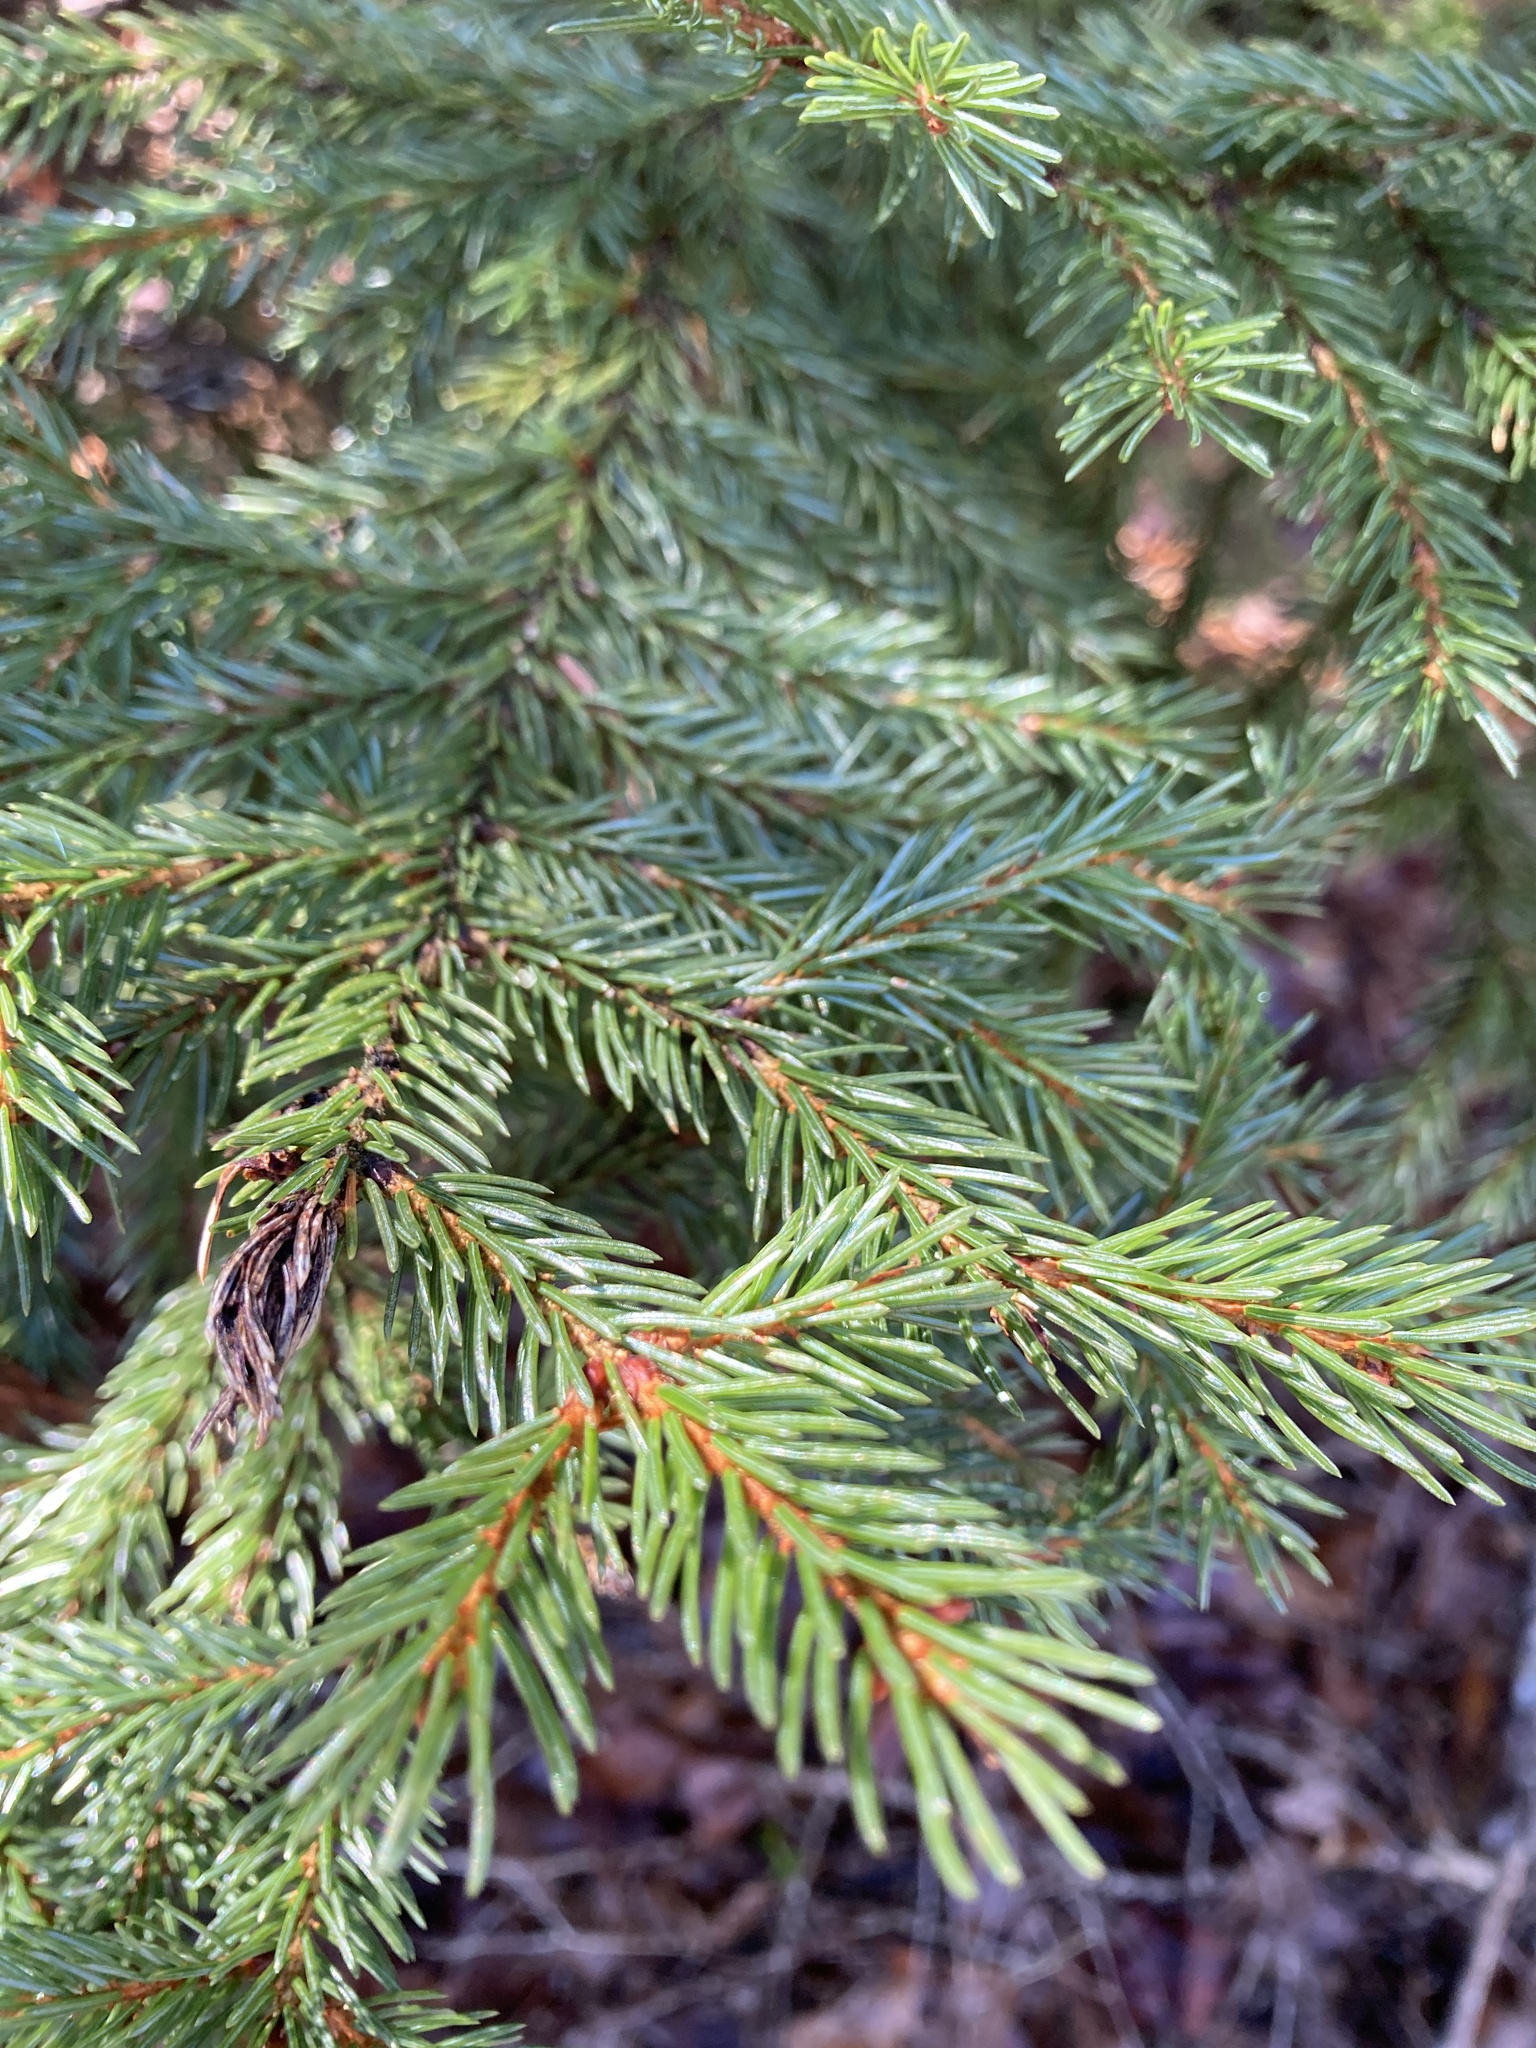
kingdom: Plantae
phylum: Tracheophyta
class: Pinopsida
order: Pinales
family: Pinaceae
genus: Picea
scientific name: Picea rubens
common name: Red spruce
